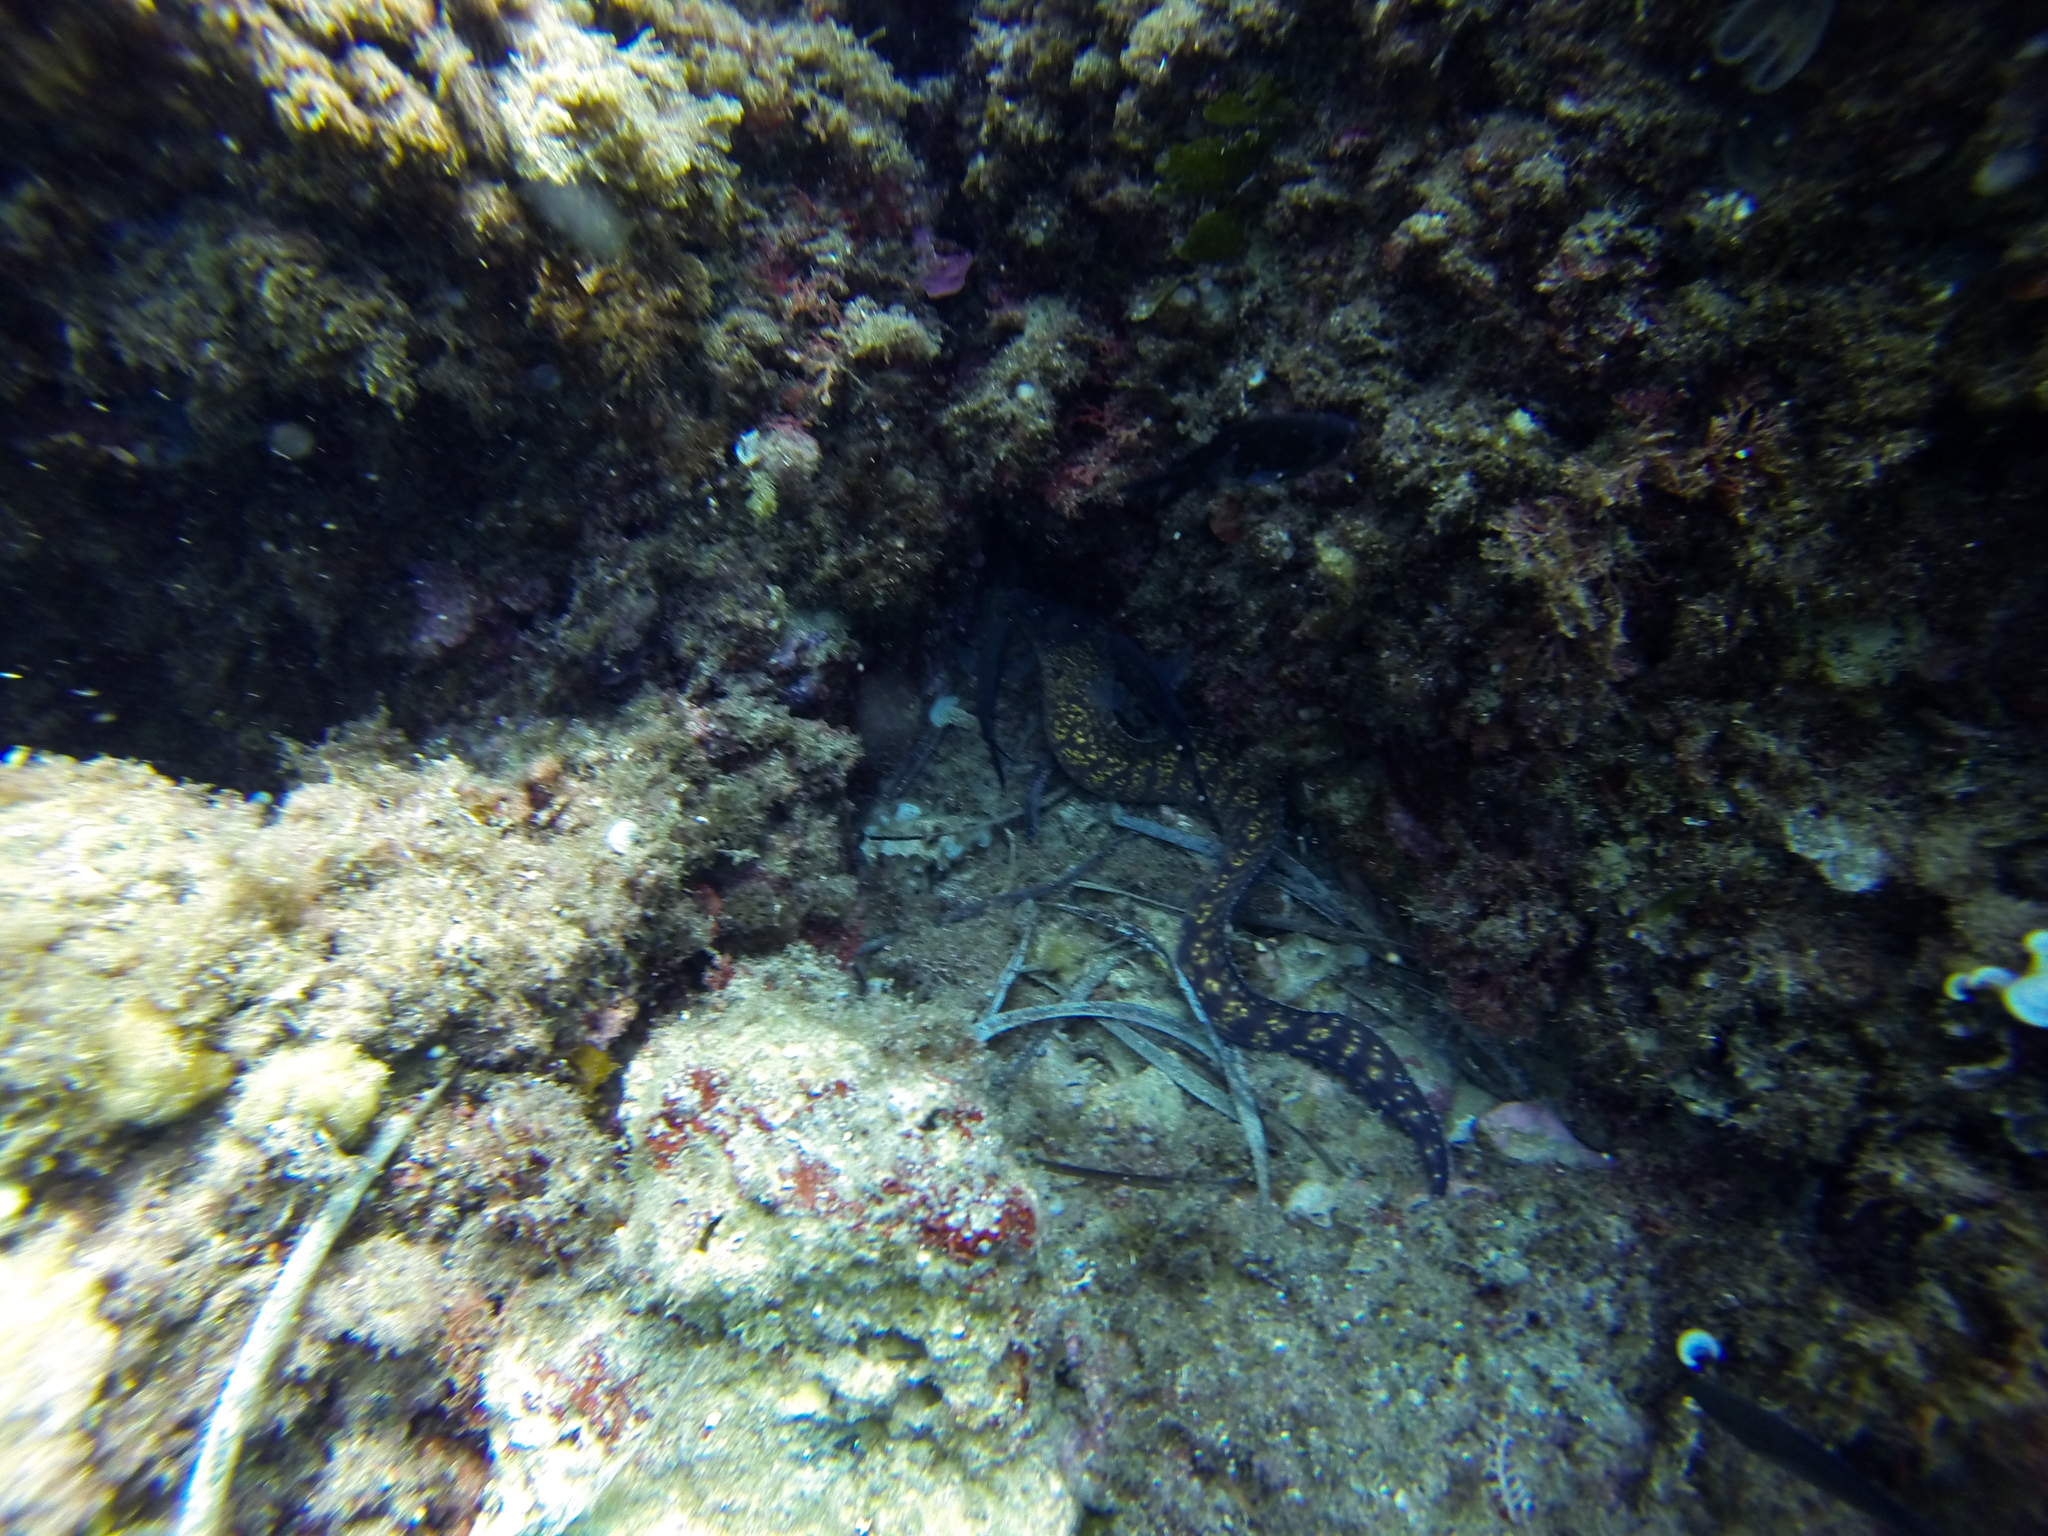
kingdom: Animalia
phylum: Chordata
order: Anguilliformes
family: Muraenidae
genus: Muraena
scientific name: Muraena helena
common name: Mediterranean moray
